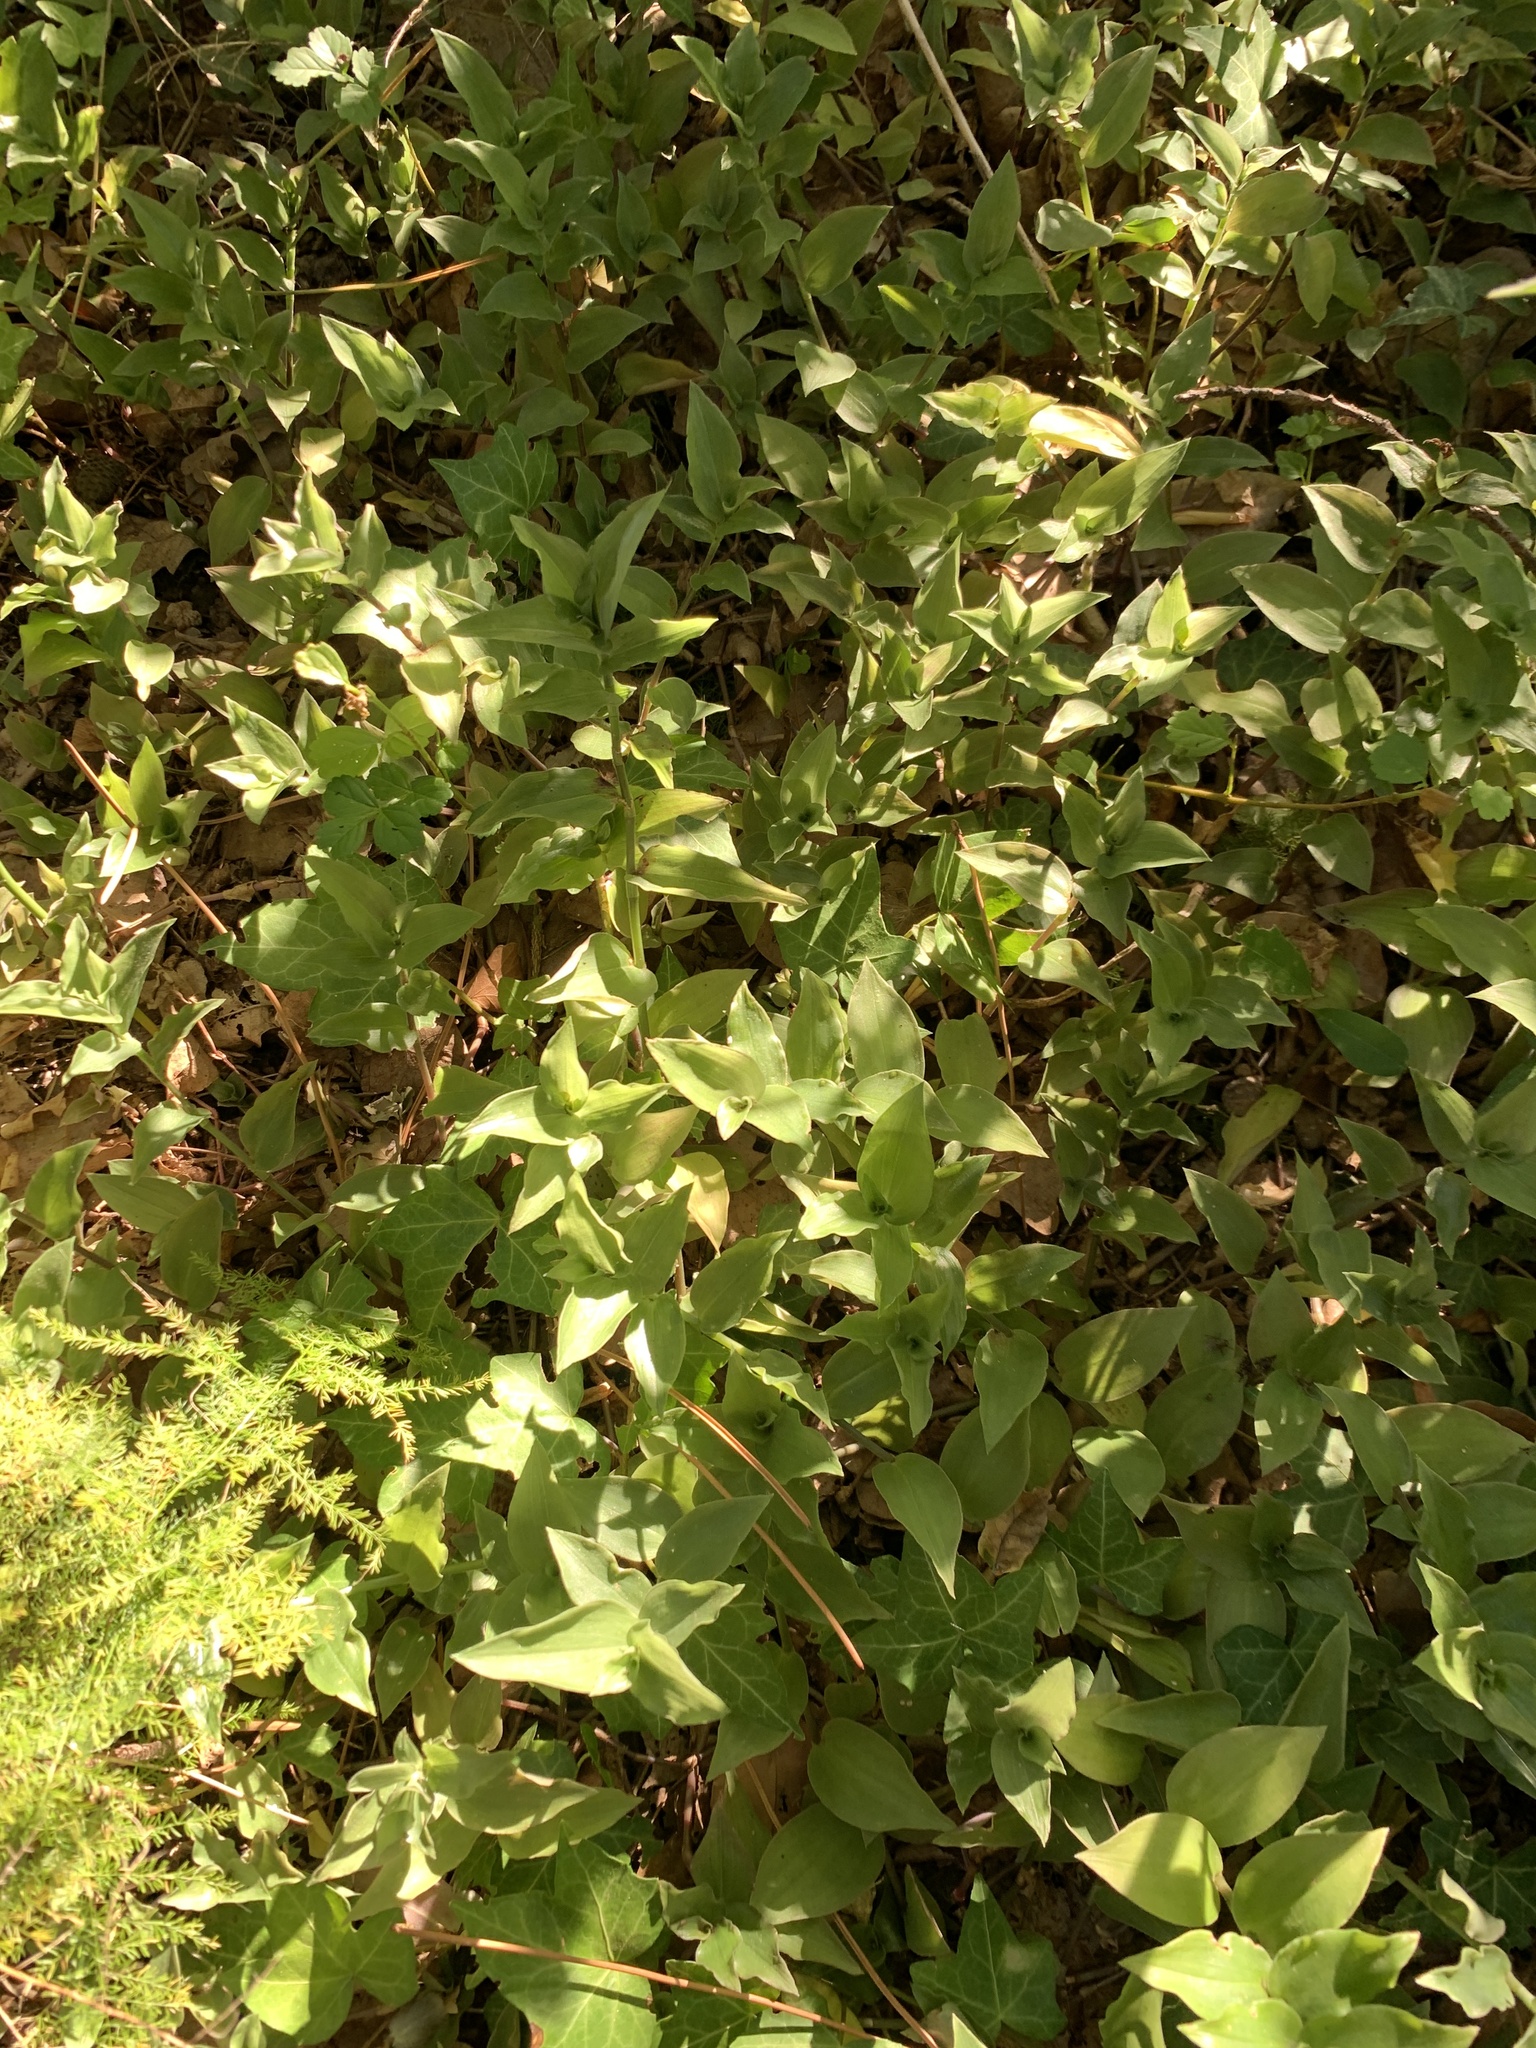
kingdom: Plantae
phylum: Tracheophyta
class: Liliopsida
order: Commelinales
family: Commelinaceae
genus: Tradescantia
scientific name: Tradescantia fluminensis
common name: Wandering-jew
